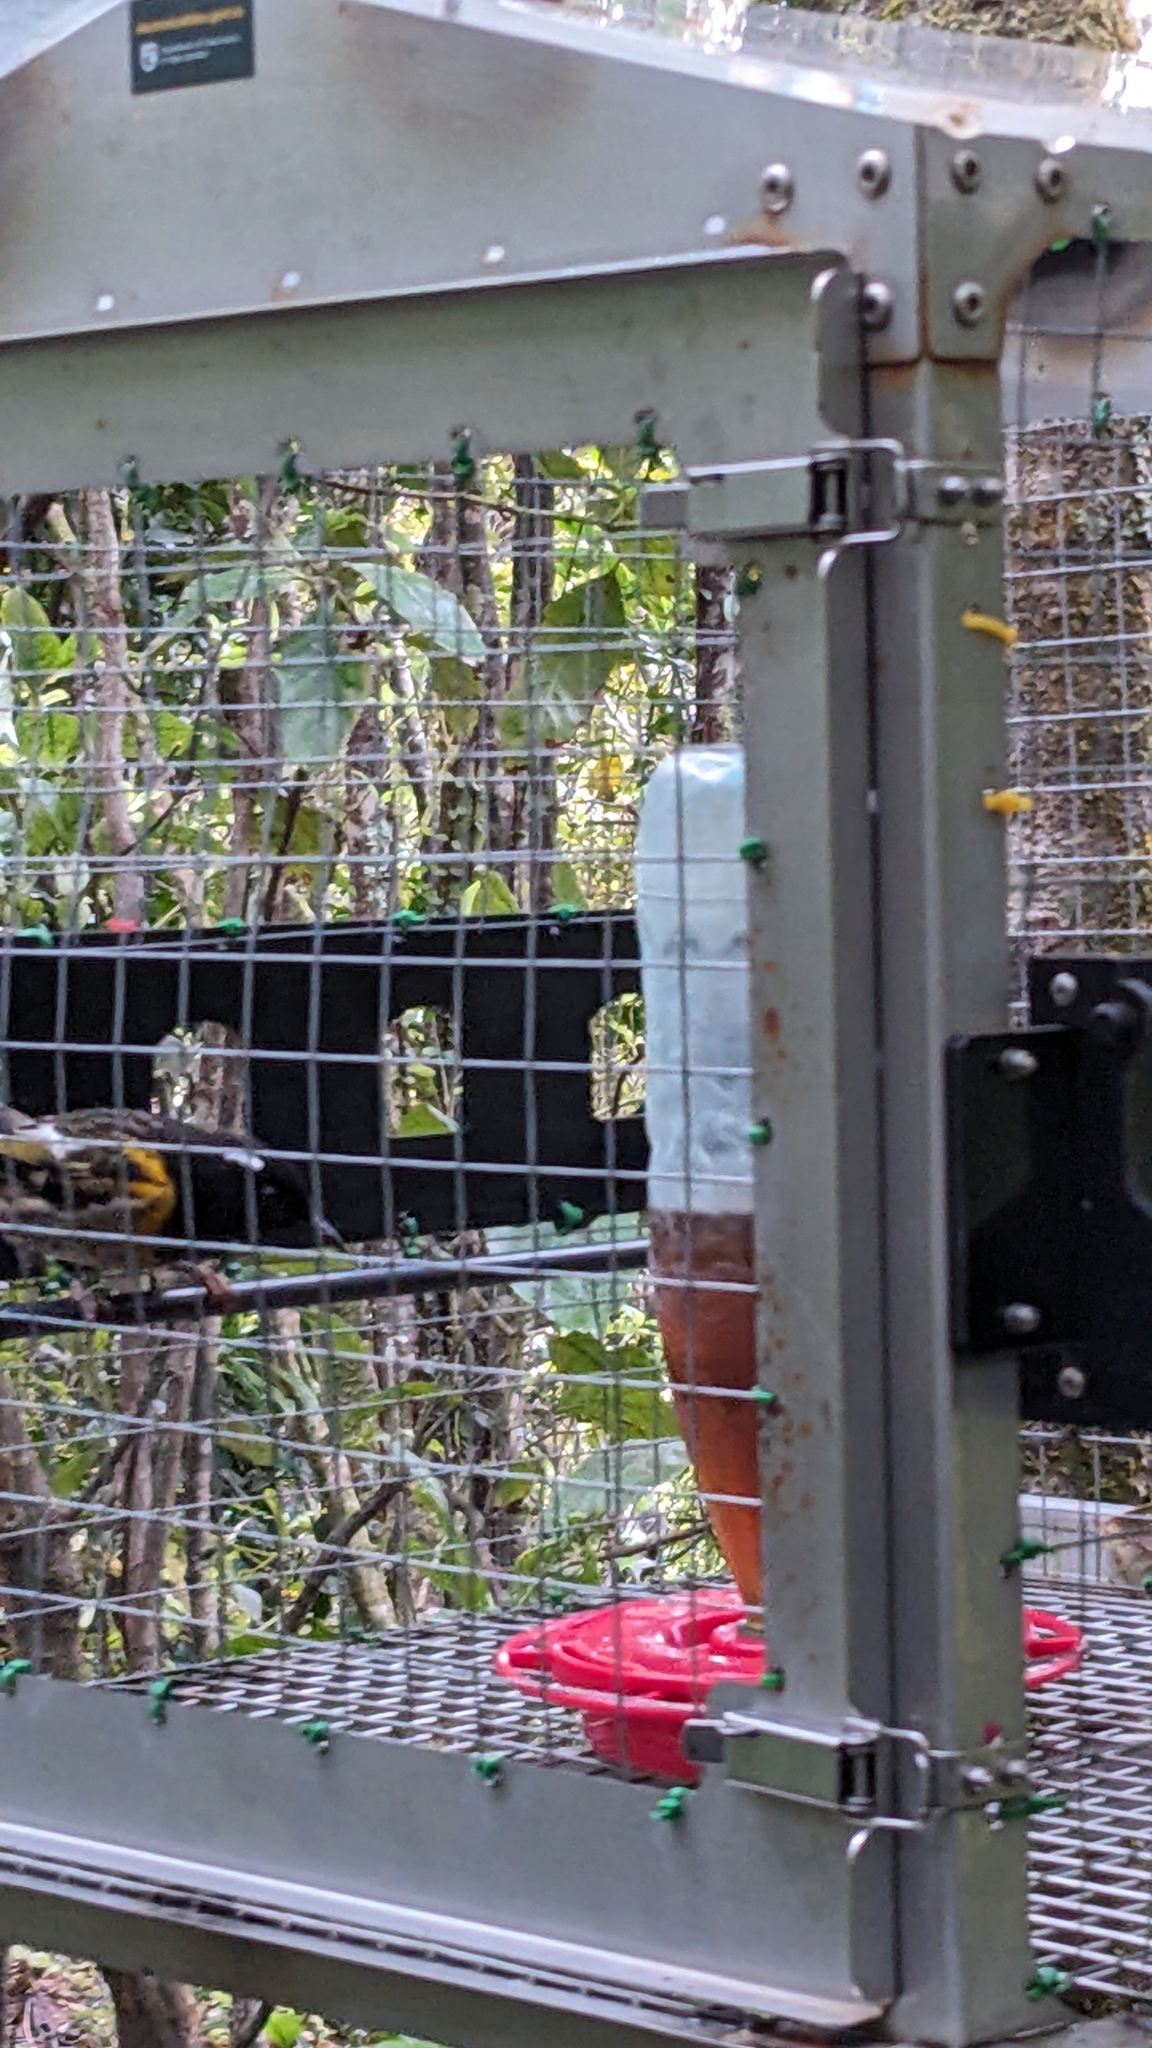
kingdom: Animalia
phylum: Chordata
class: Aves
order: Passeriformes
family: Notiomystidae
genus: Notiomystis
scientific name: Notiomystis cincta
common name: Stitchbird
